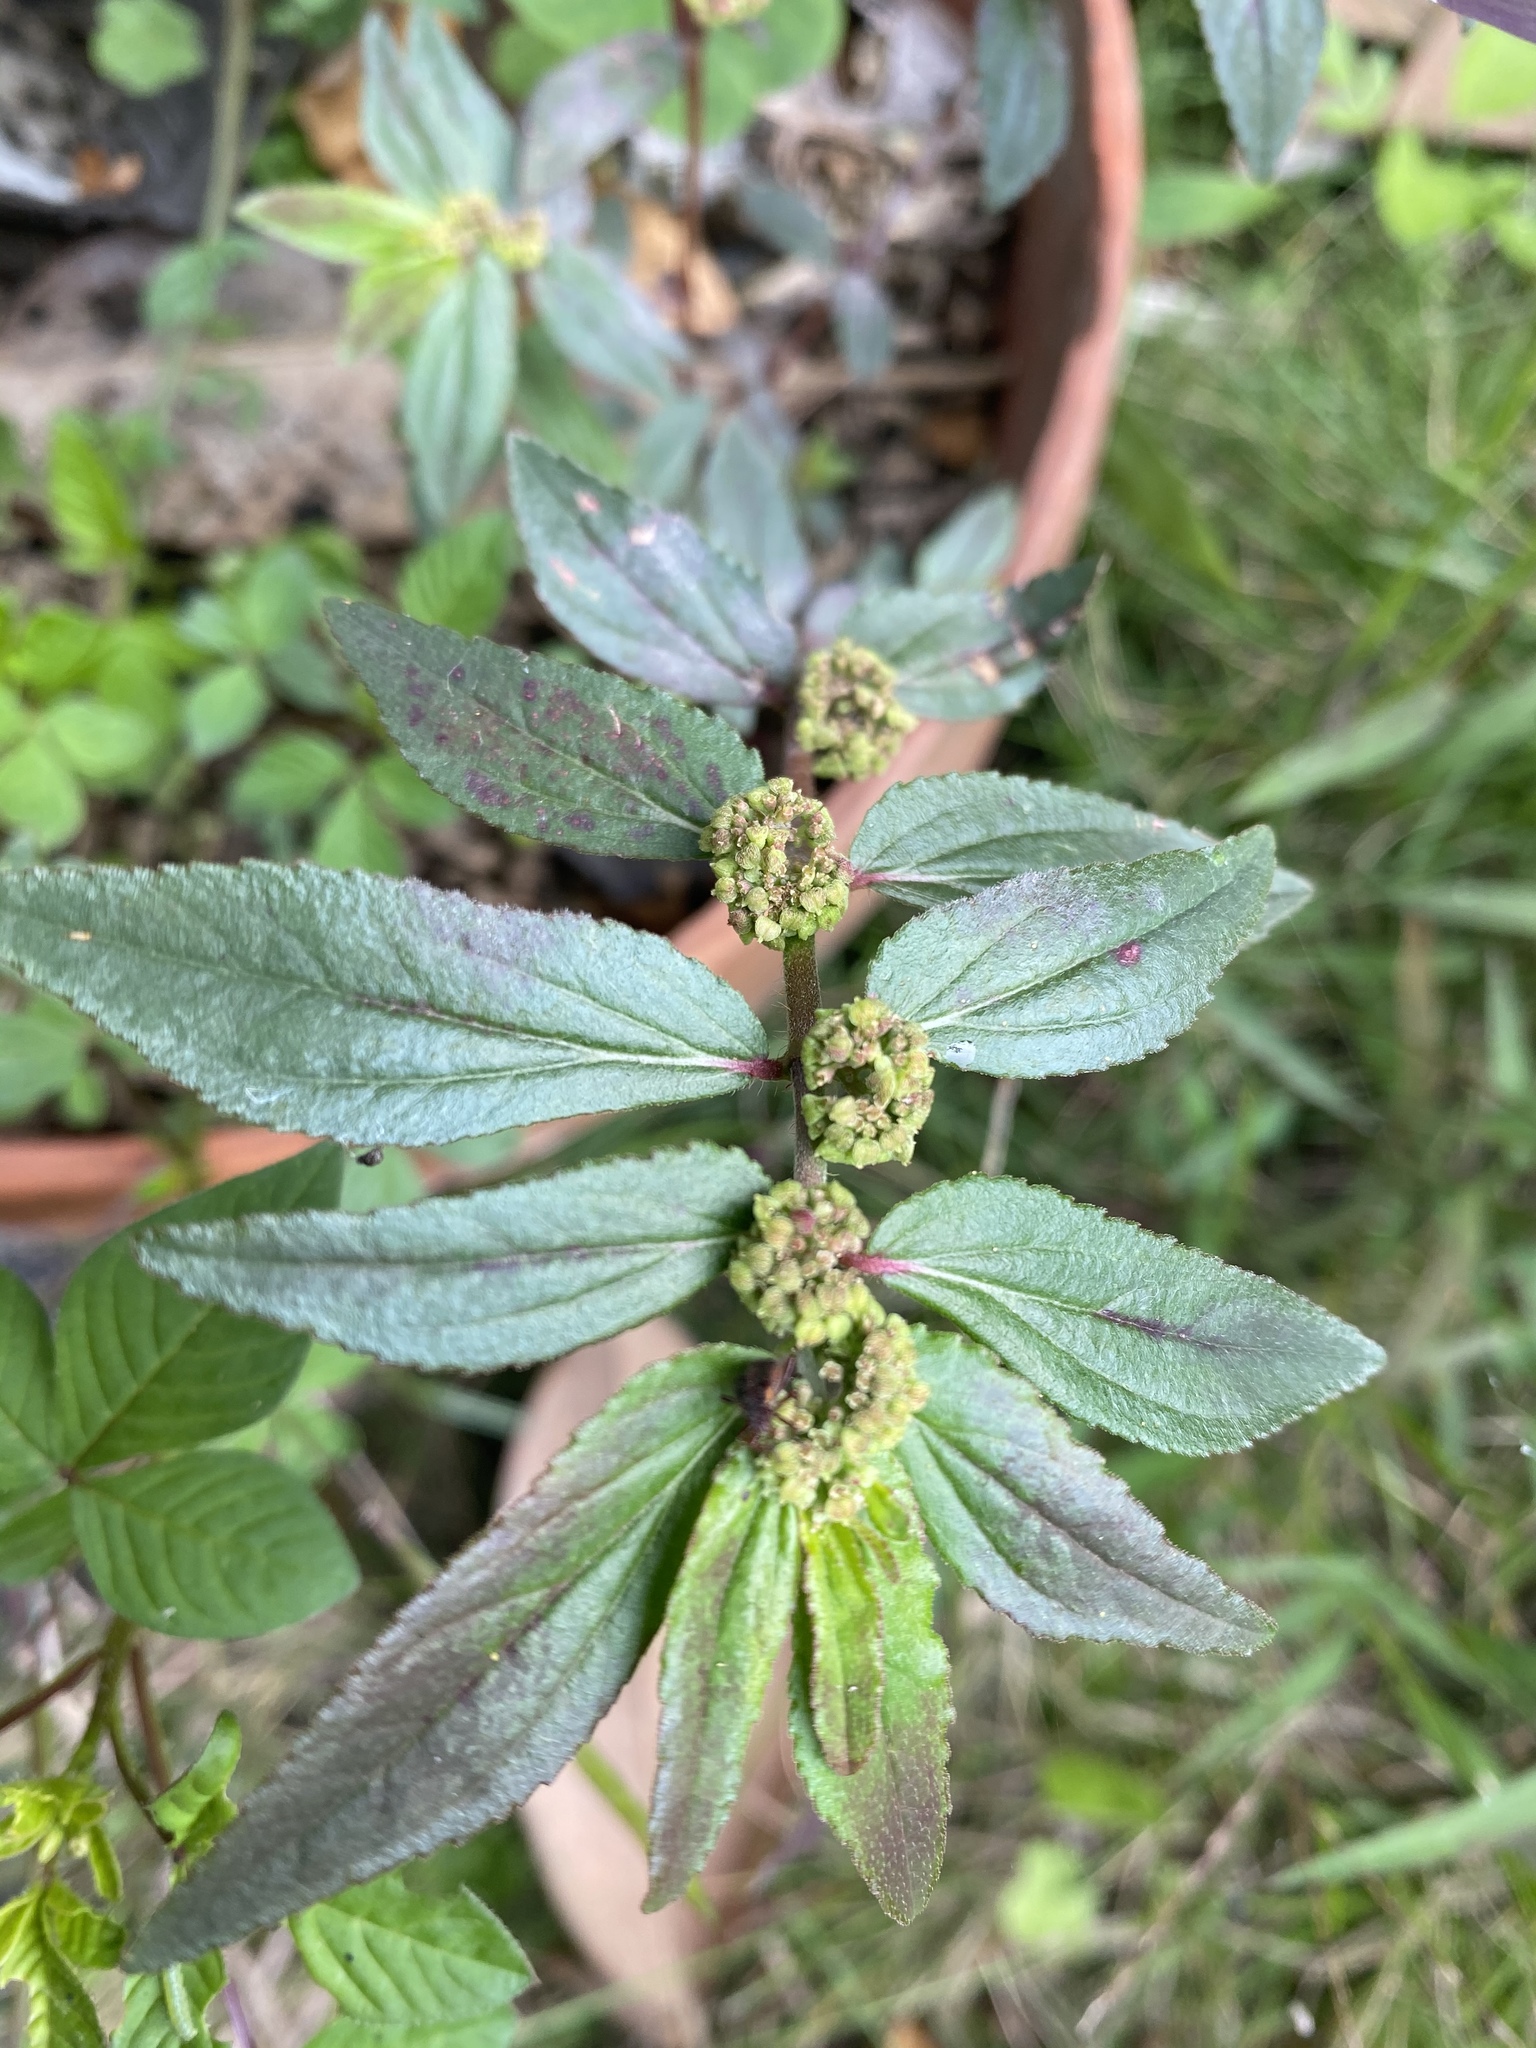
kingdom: Plantae
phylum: Tracheophyta
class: Magnoliopsida
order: Malpighiales
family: Euphorbiaceae
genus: Euphorbia
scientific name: Euphorbia hirta
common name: Pillpod sandmat
